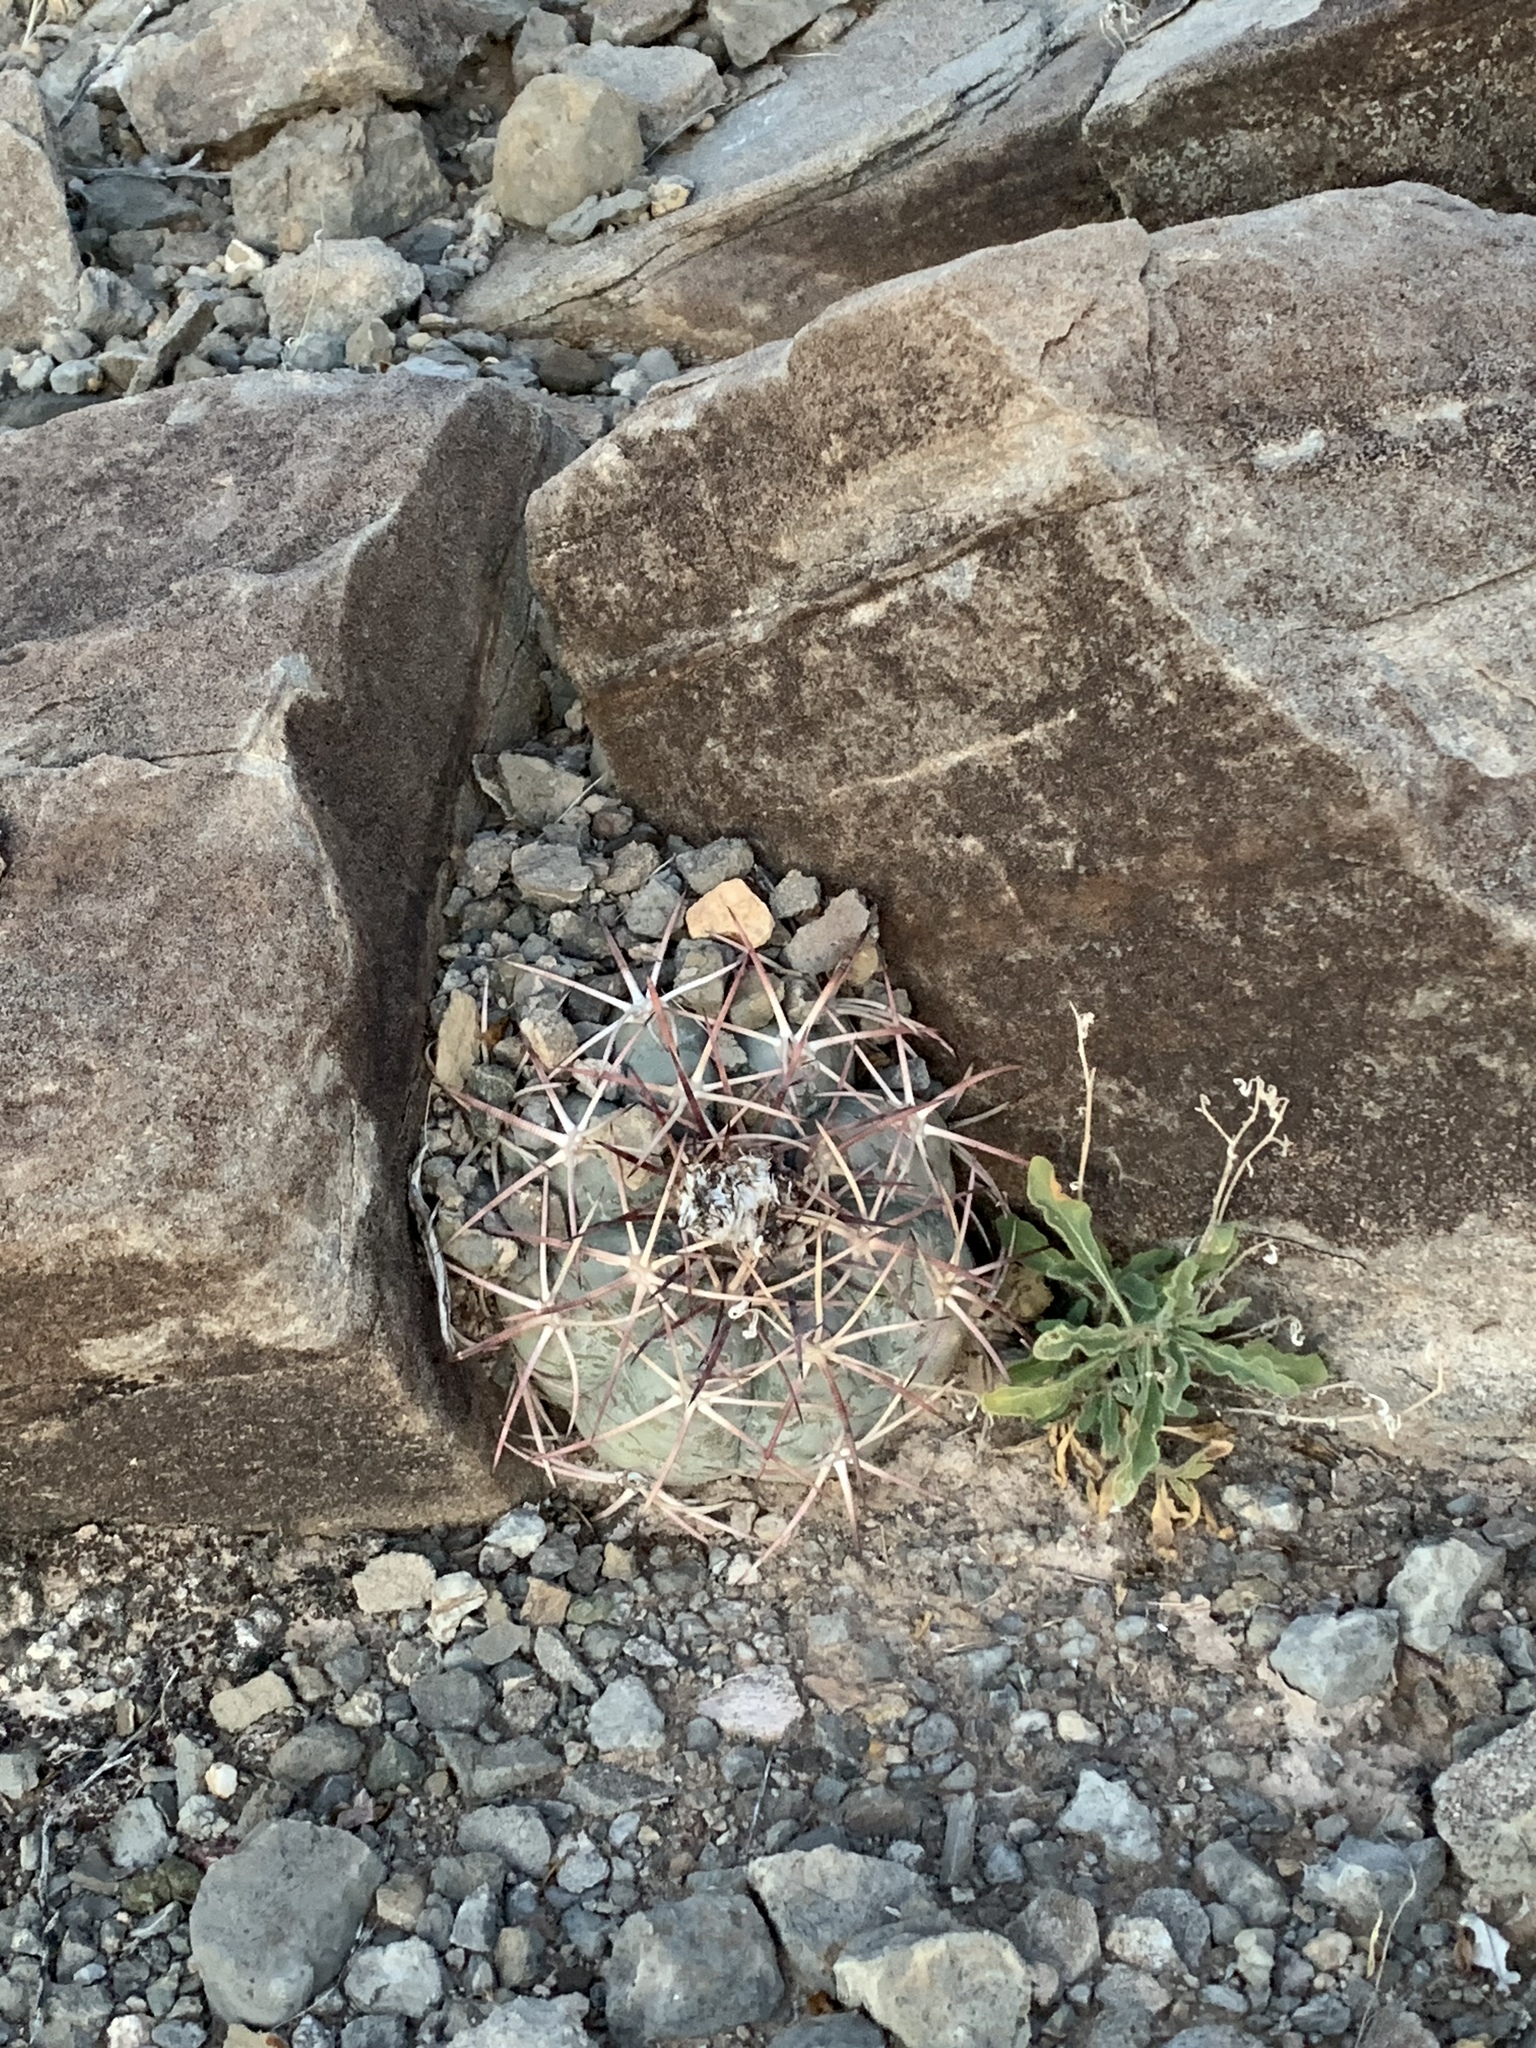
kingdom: Plantae
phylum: Tracheophyta
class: Magnoliopsida
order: Caryophyllales
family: Cactaceae
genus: Echinocactus
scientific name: Echinocactus horizonthalonius
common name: Devilshead
